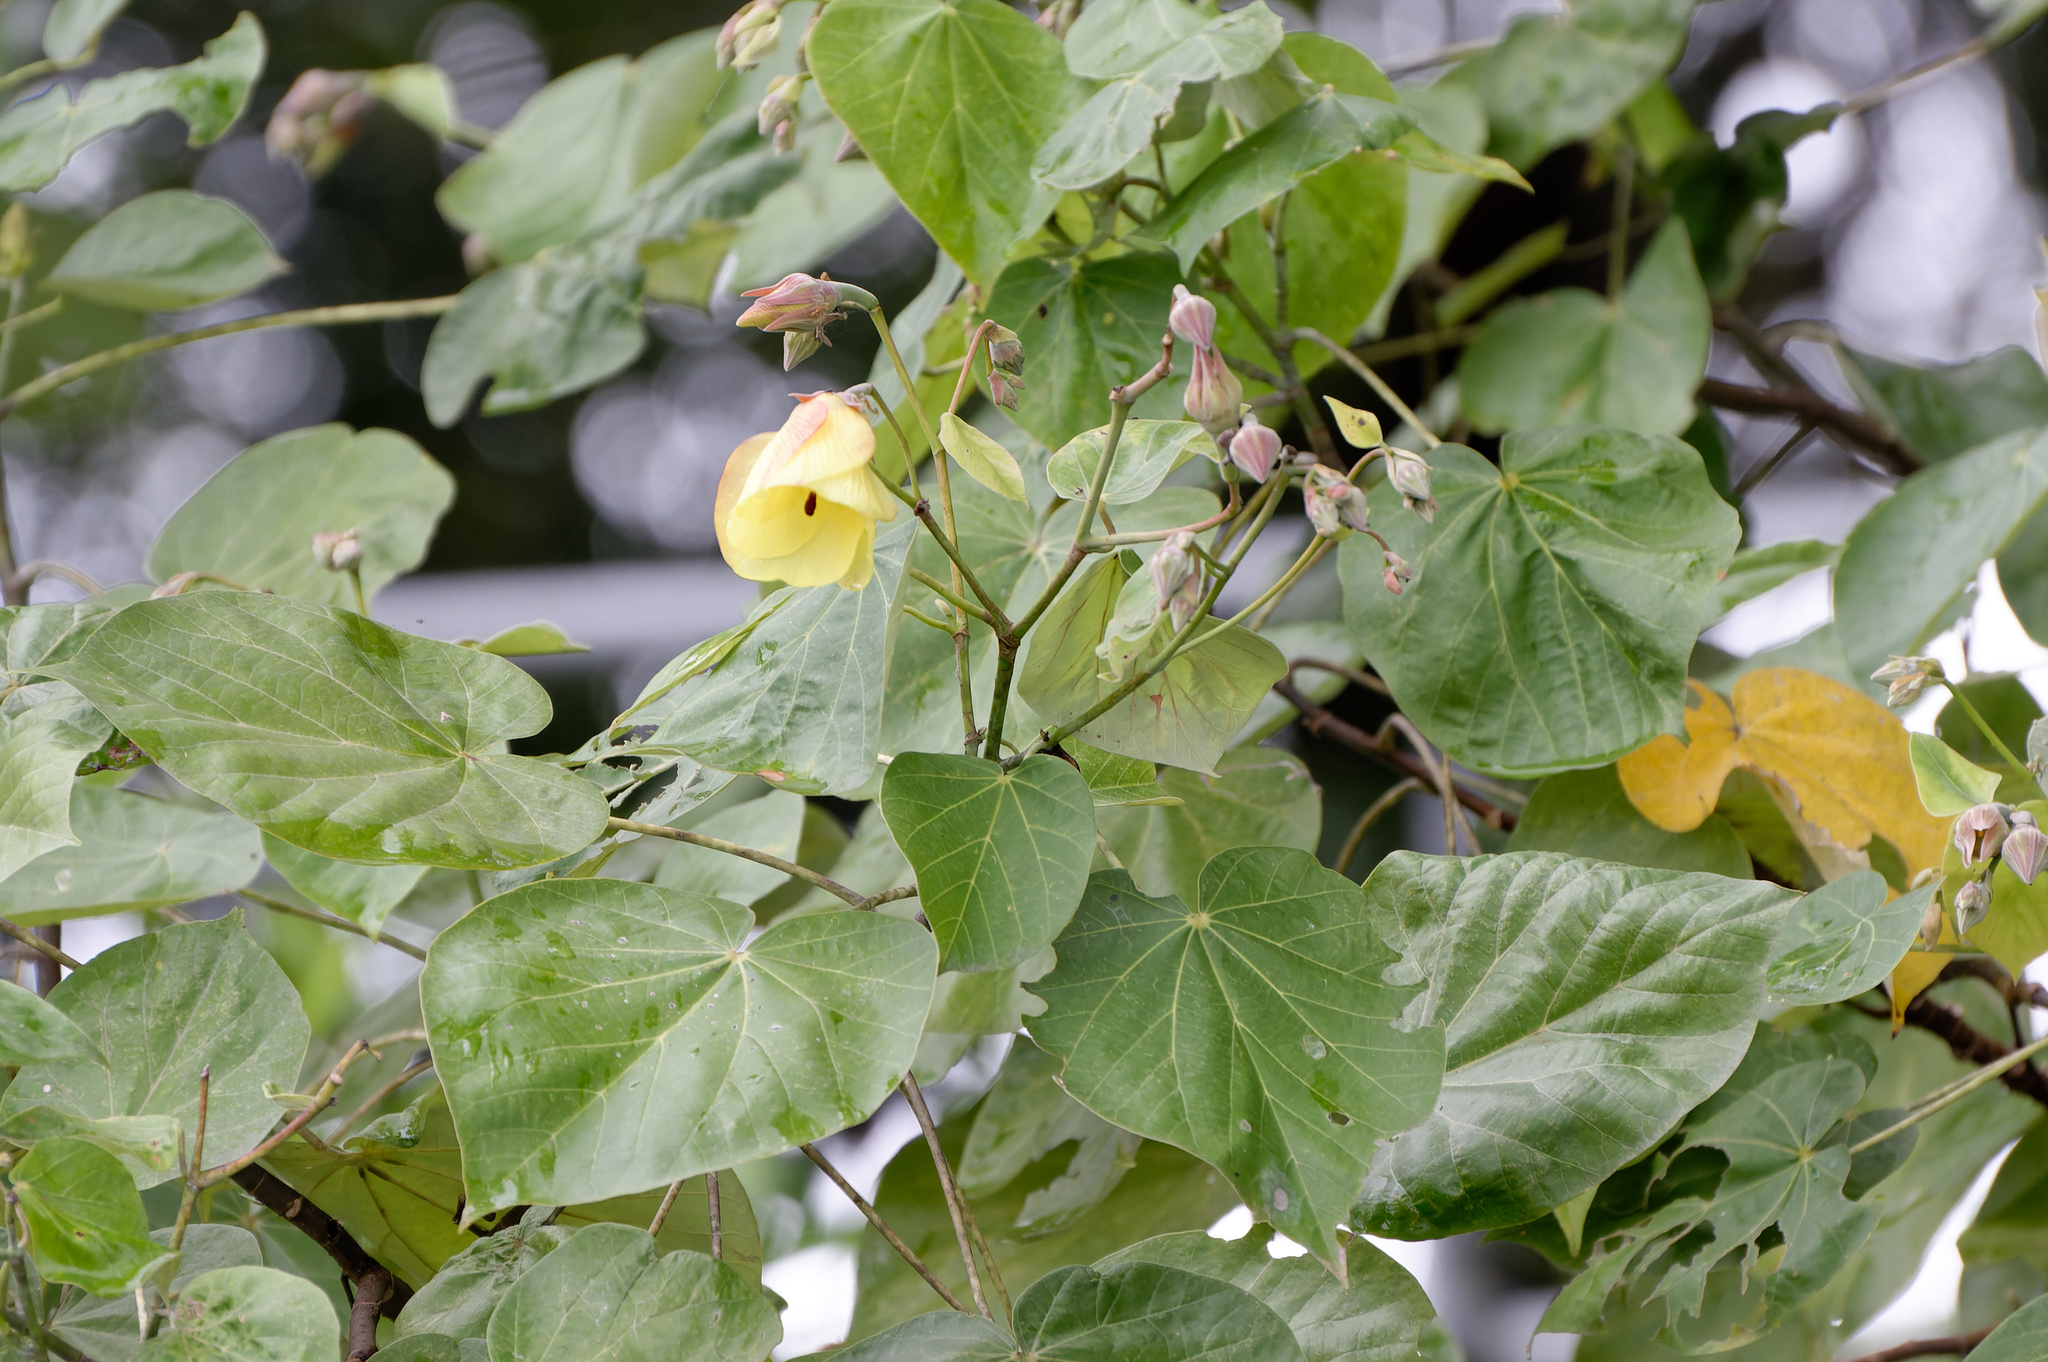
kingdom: Plantae
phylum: Tracheophyta
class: Magnoliopsida
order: Malvales
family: Malvaceae
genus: Talipariti
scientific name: Talipariti tiliaceum
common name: Sea hibiscus
